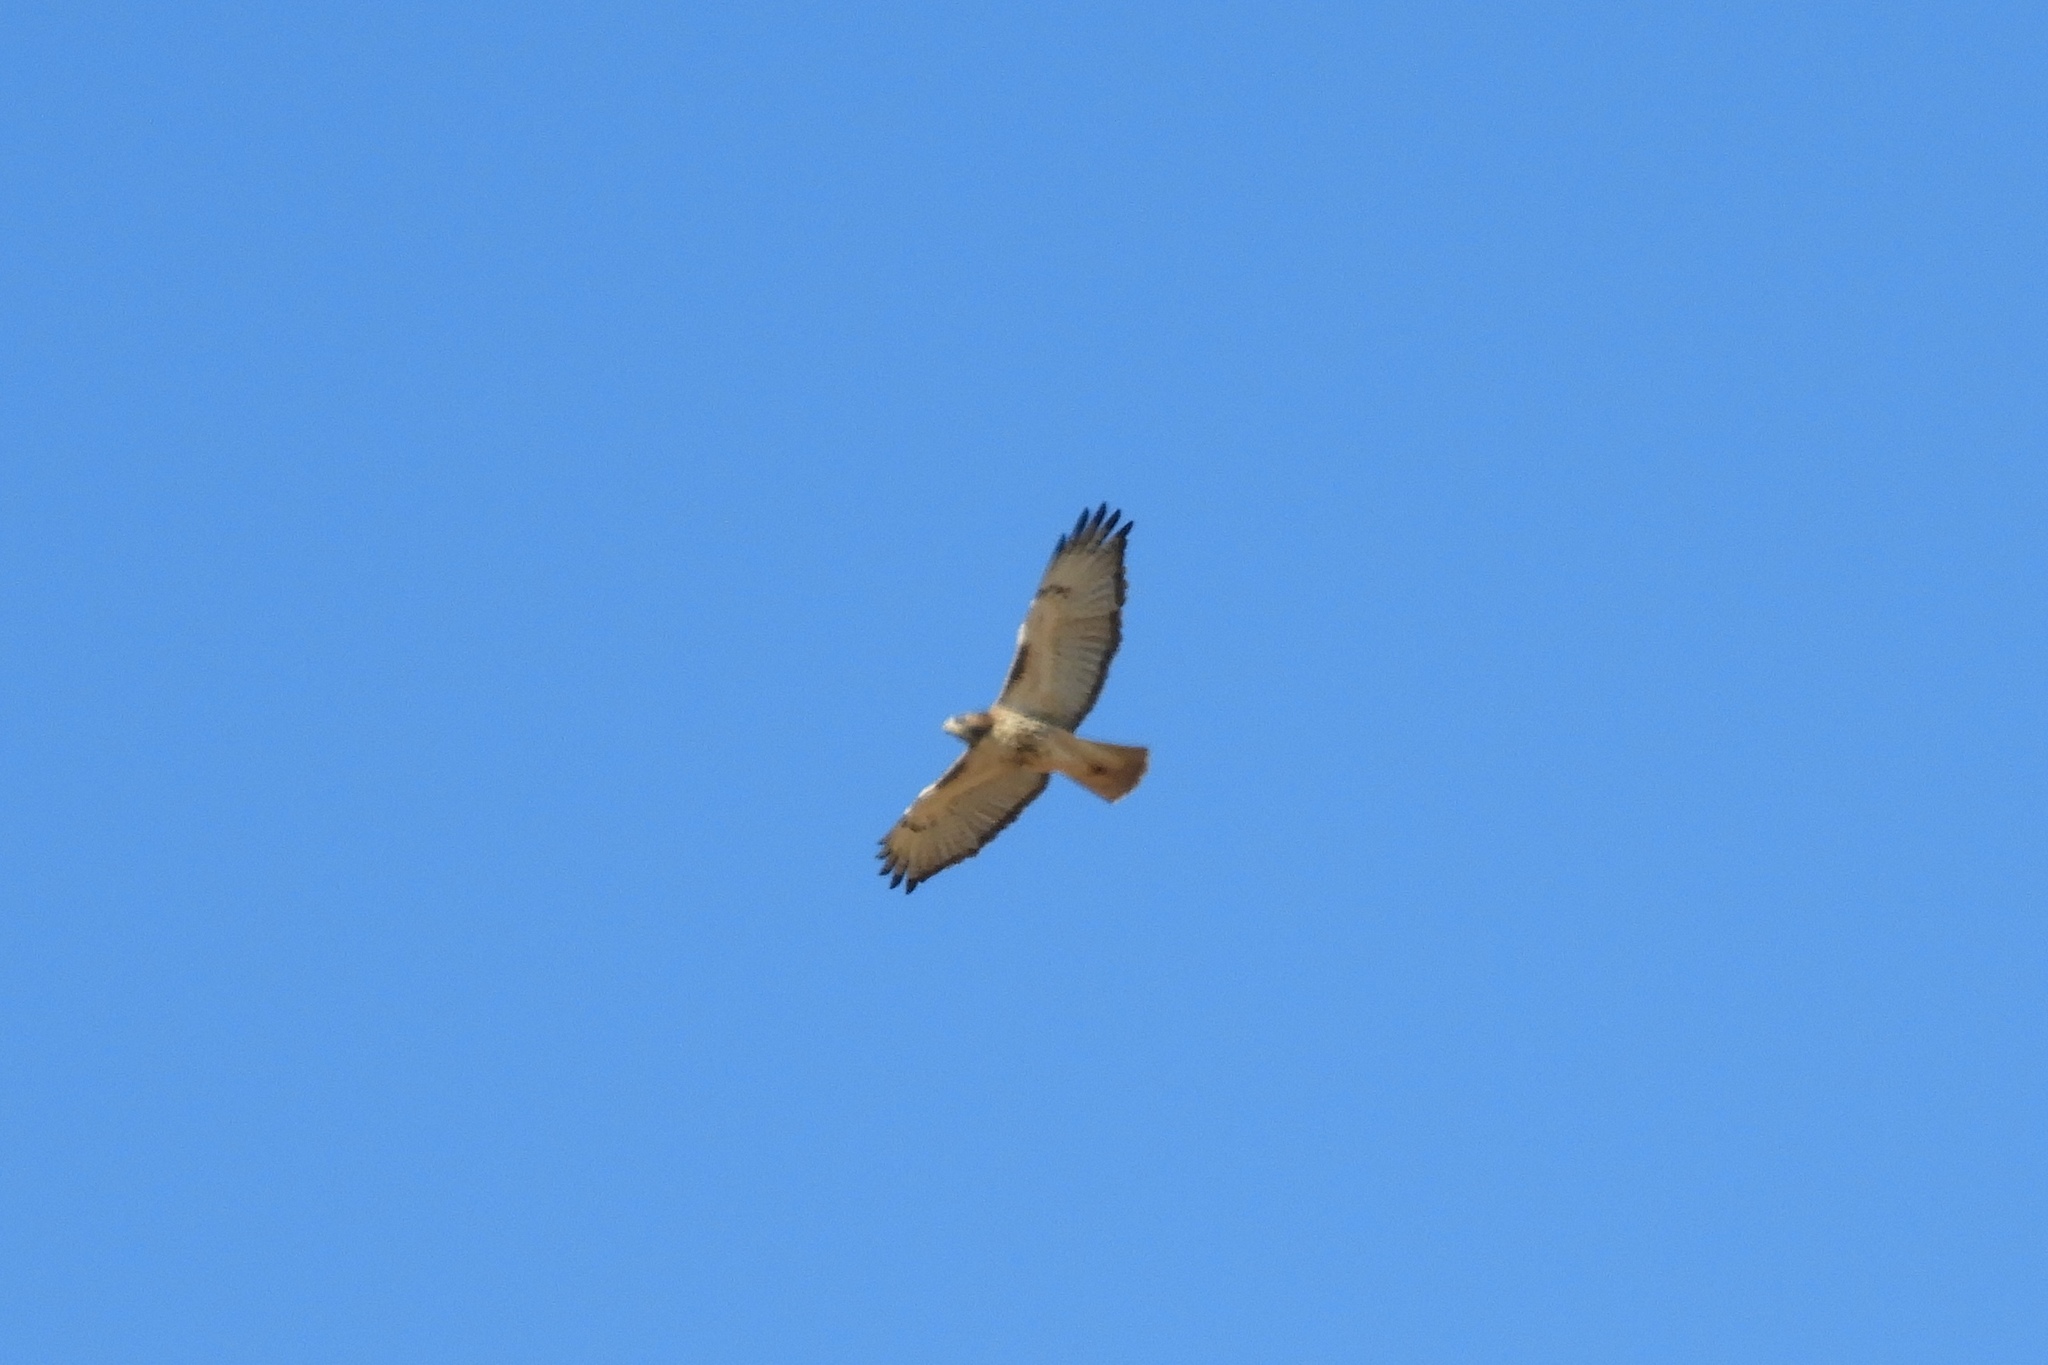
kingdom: Animalia
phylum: Chordata
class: Aves
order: Accipitriformes
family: Accipitridae
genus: Buteo
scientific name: Buteo jamaicensis
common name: Red-tailed hawk
